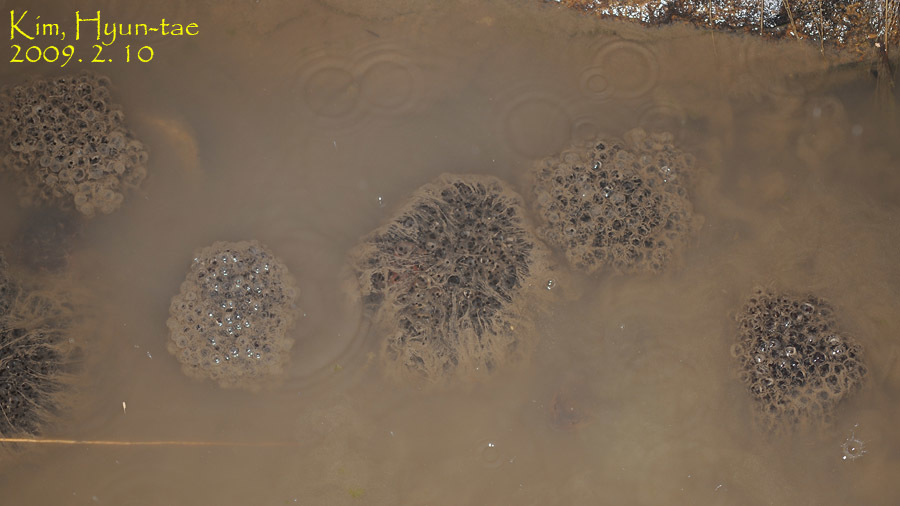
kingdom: Animalia
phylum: Chordata
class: Amphibia
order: Anura
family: Ranidae
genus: Rana
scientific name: Rana uenoi
